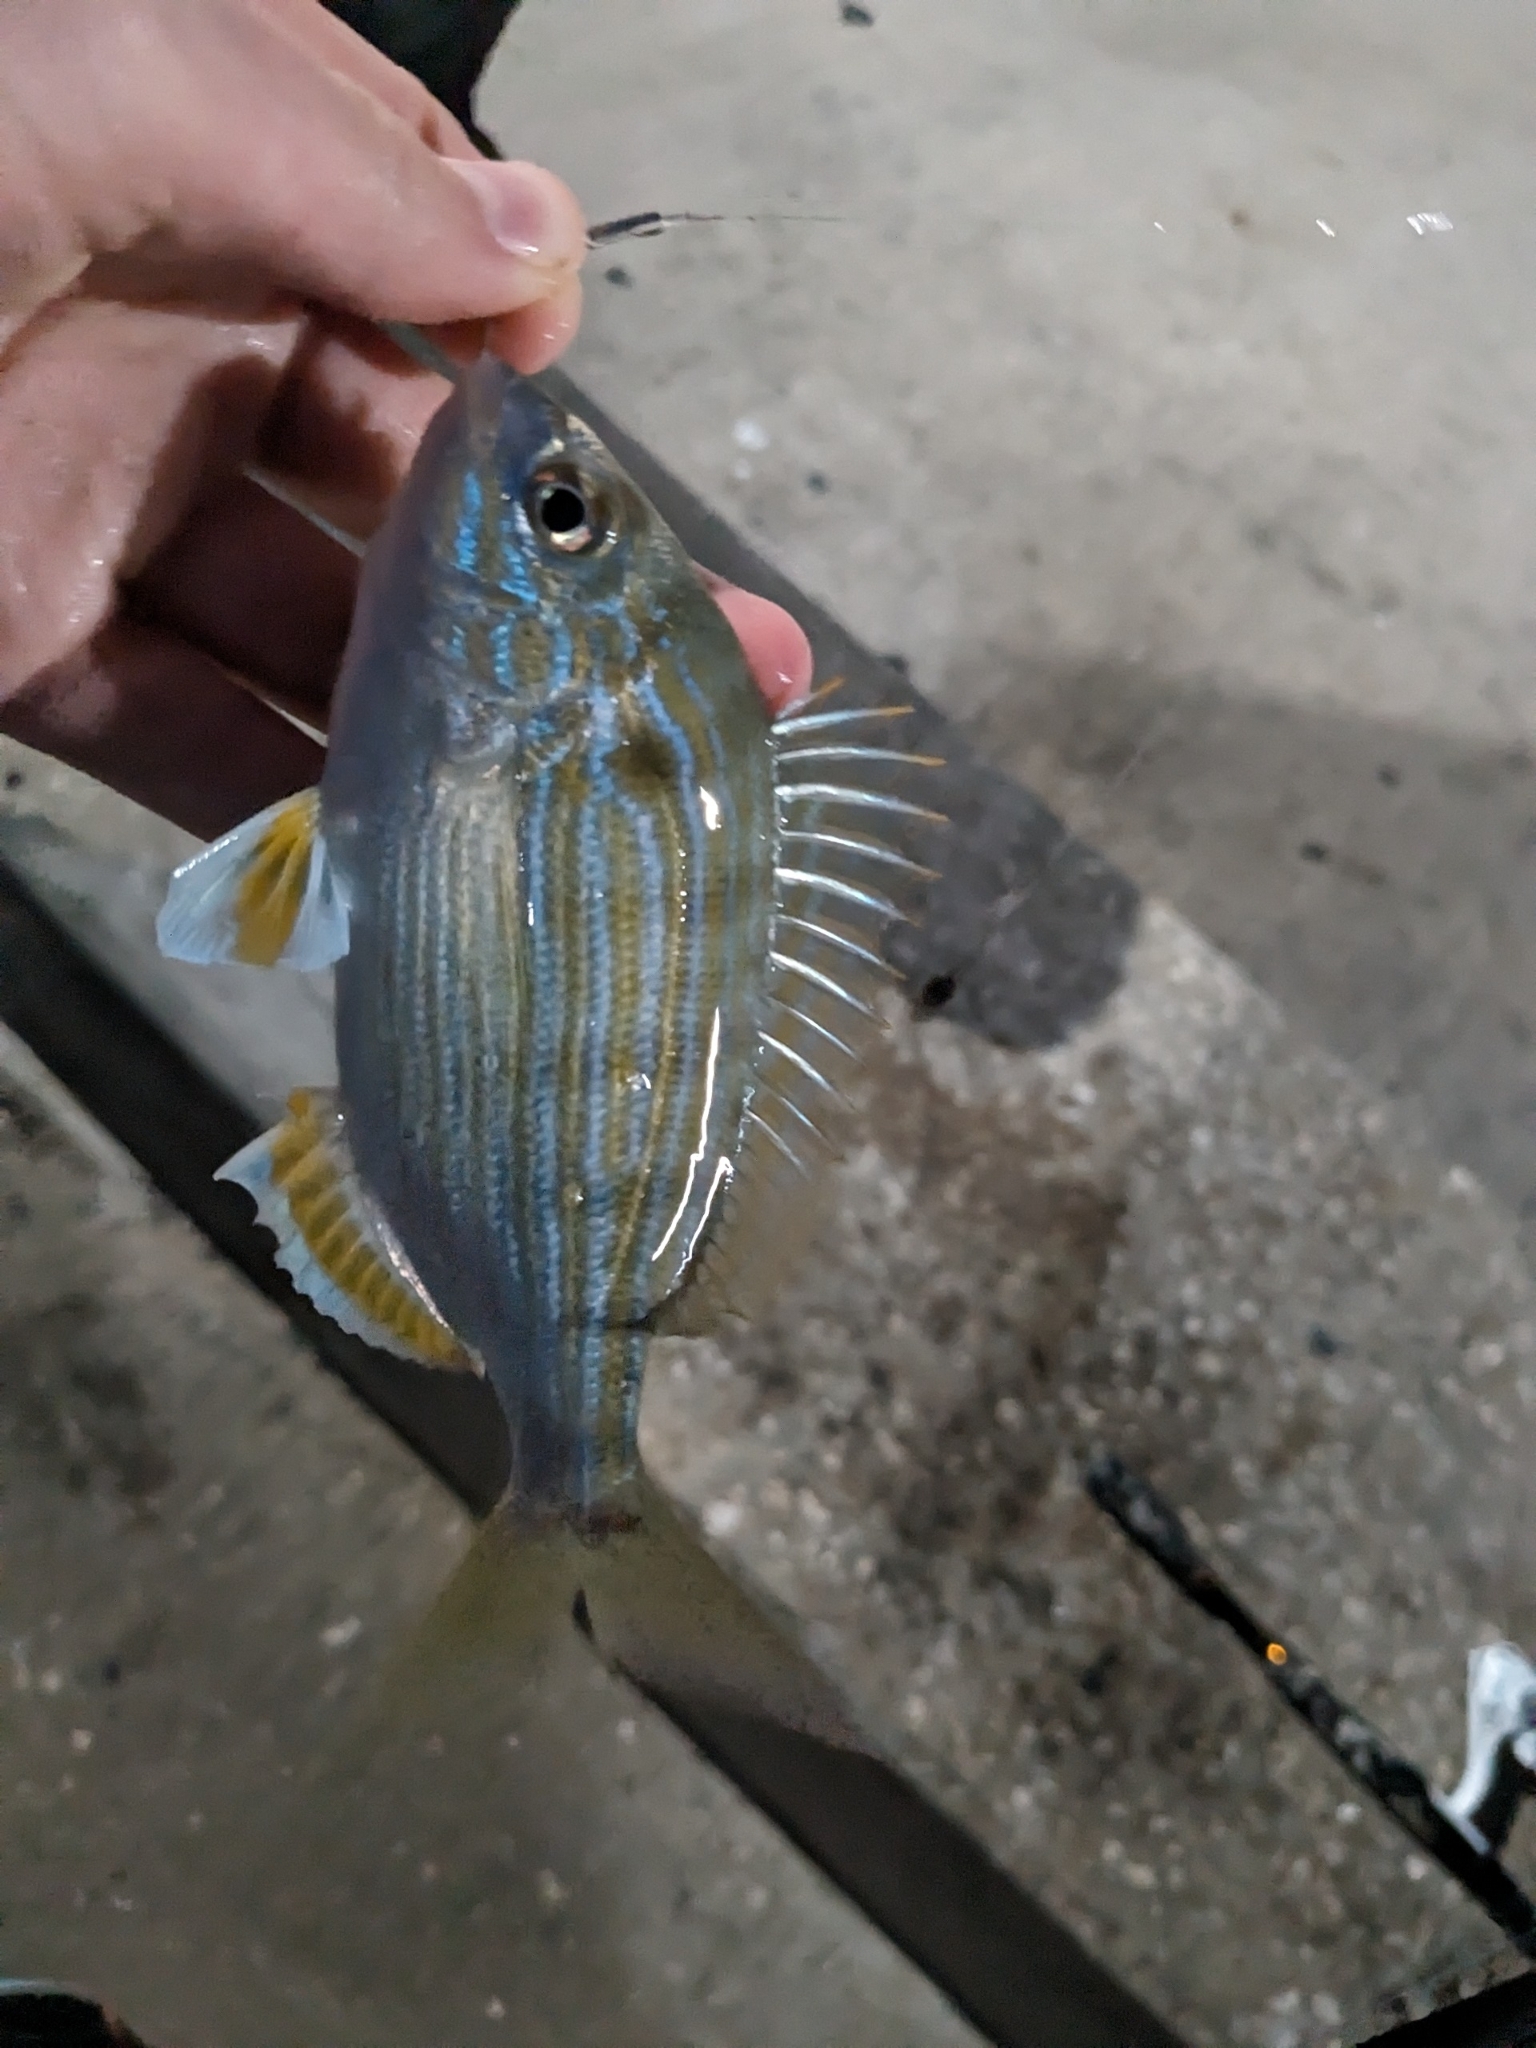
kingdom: Animalia
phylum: Chordata
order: Perciformes
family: Sparidae
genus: Lagodon
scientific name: Lagodon rhomboides
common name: Pinfish
